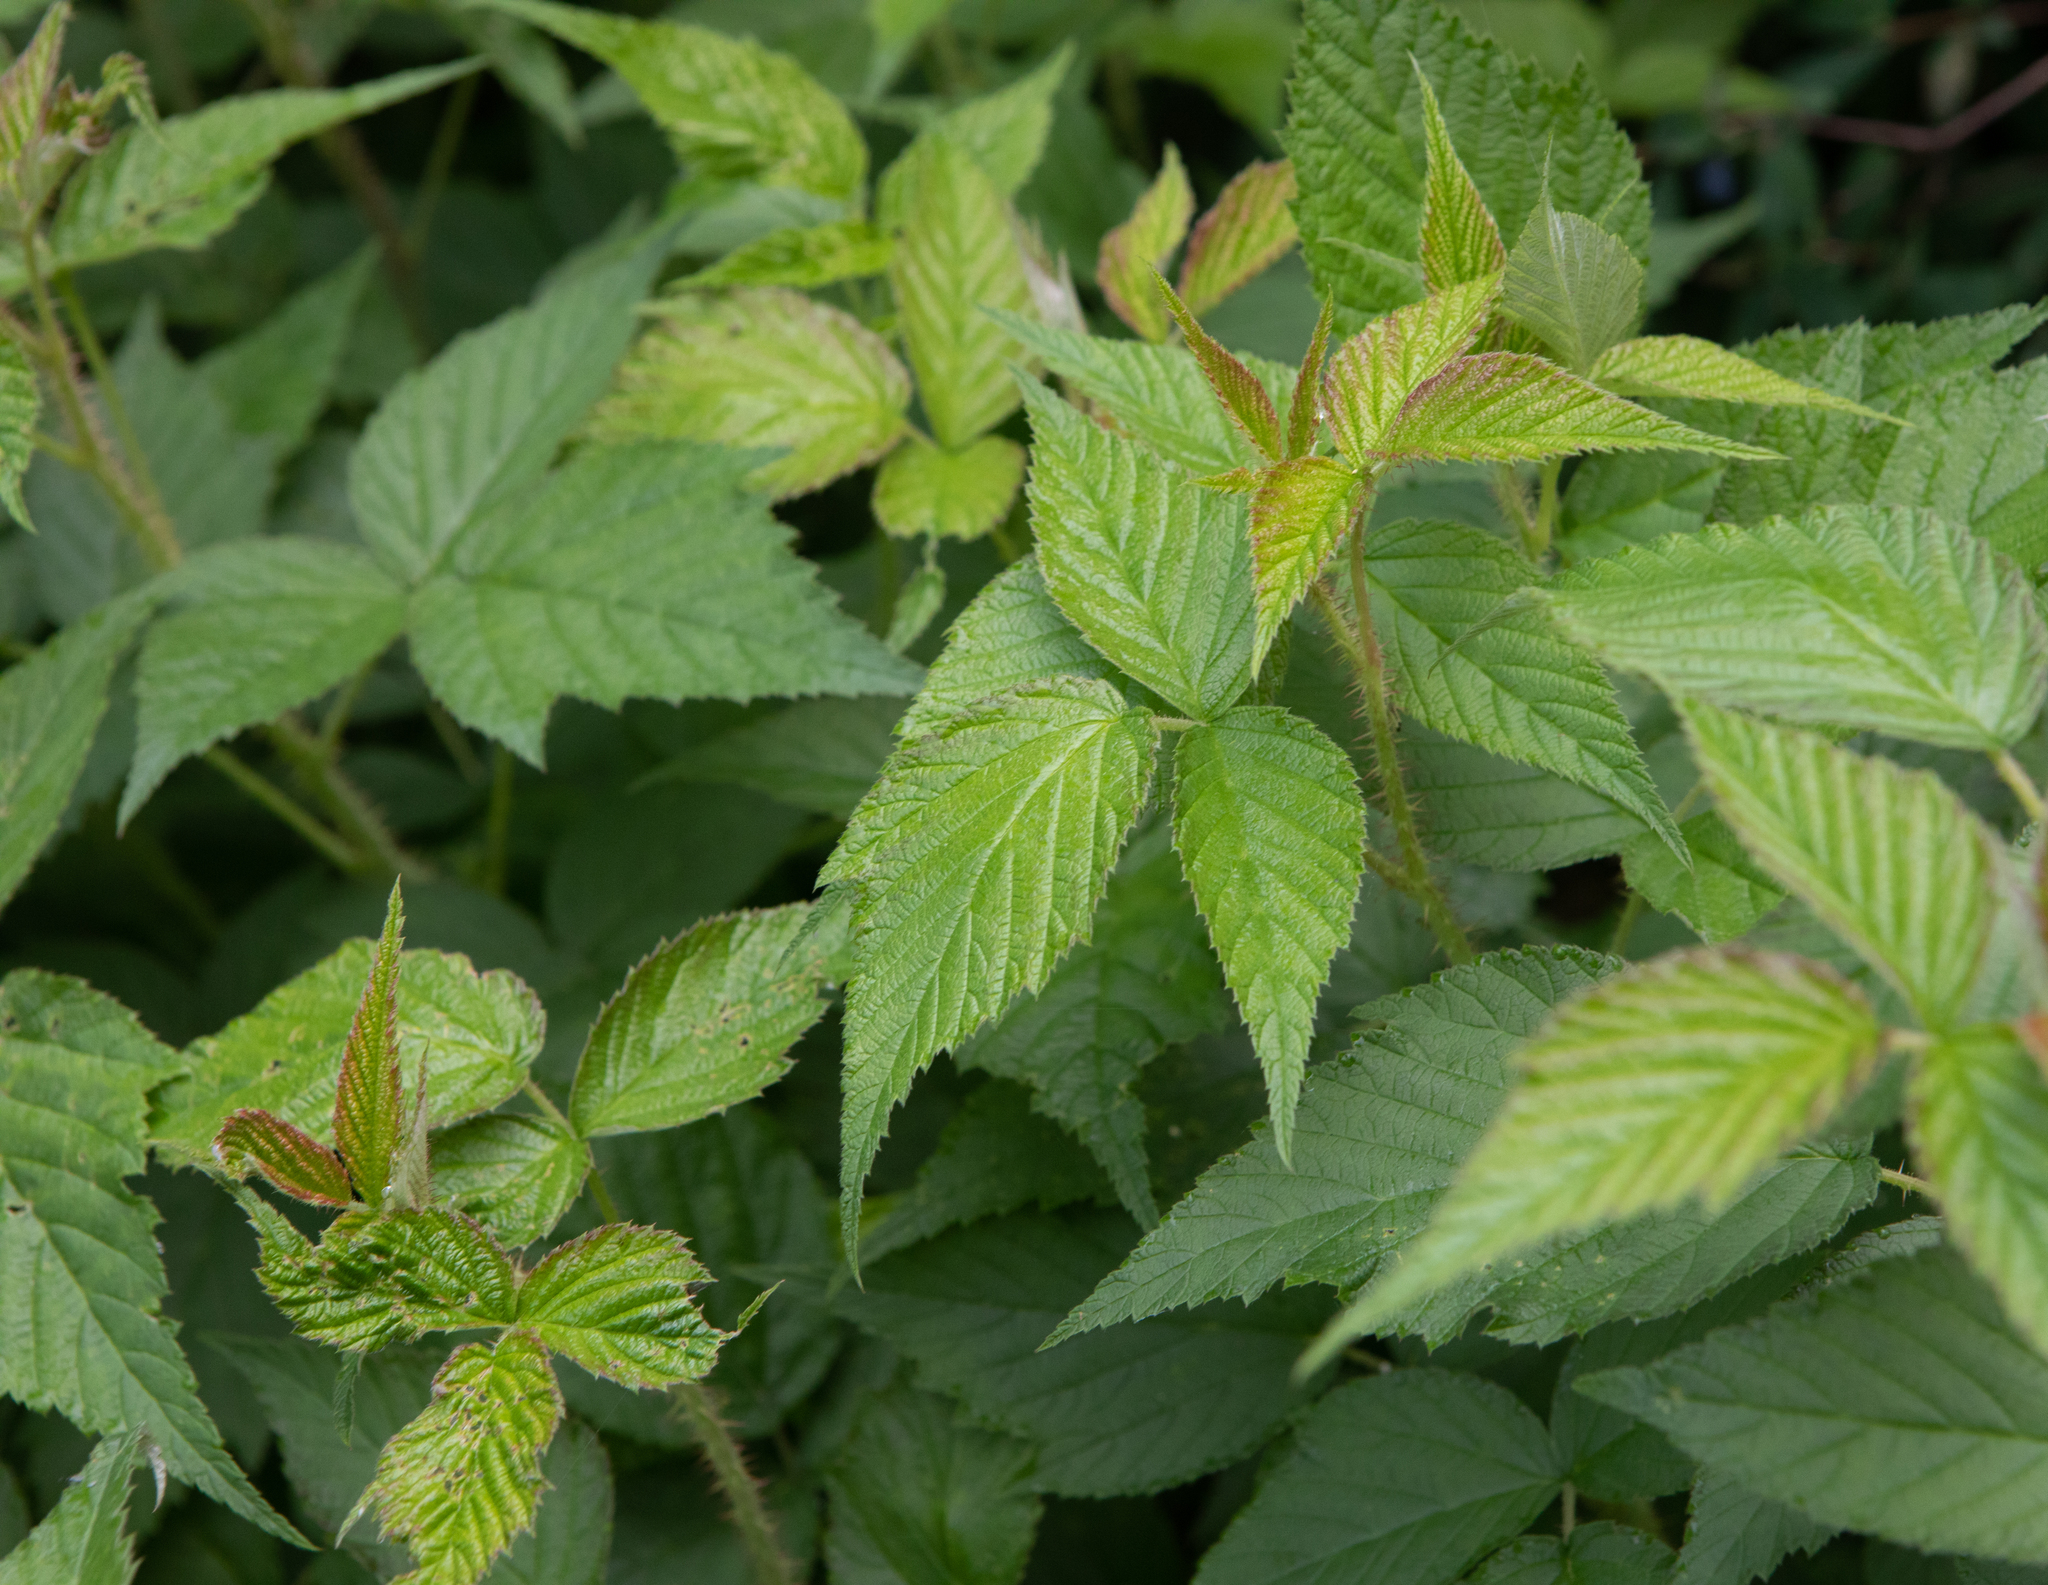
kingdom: Plantae
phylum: Tracheophyta
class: Magnoliopsida
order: Rosales
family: Rosaceae
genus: Rubus
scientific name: Rubus sachalinensis
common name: Red raspberry
